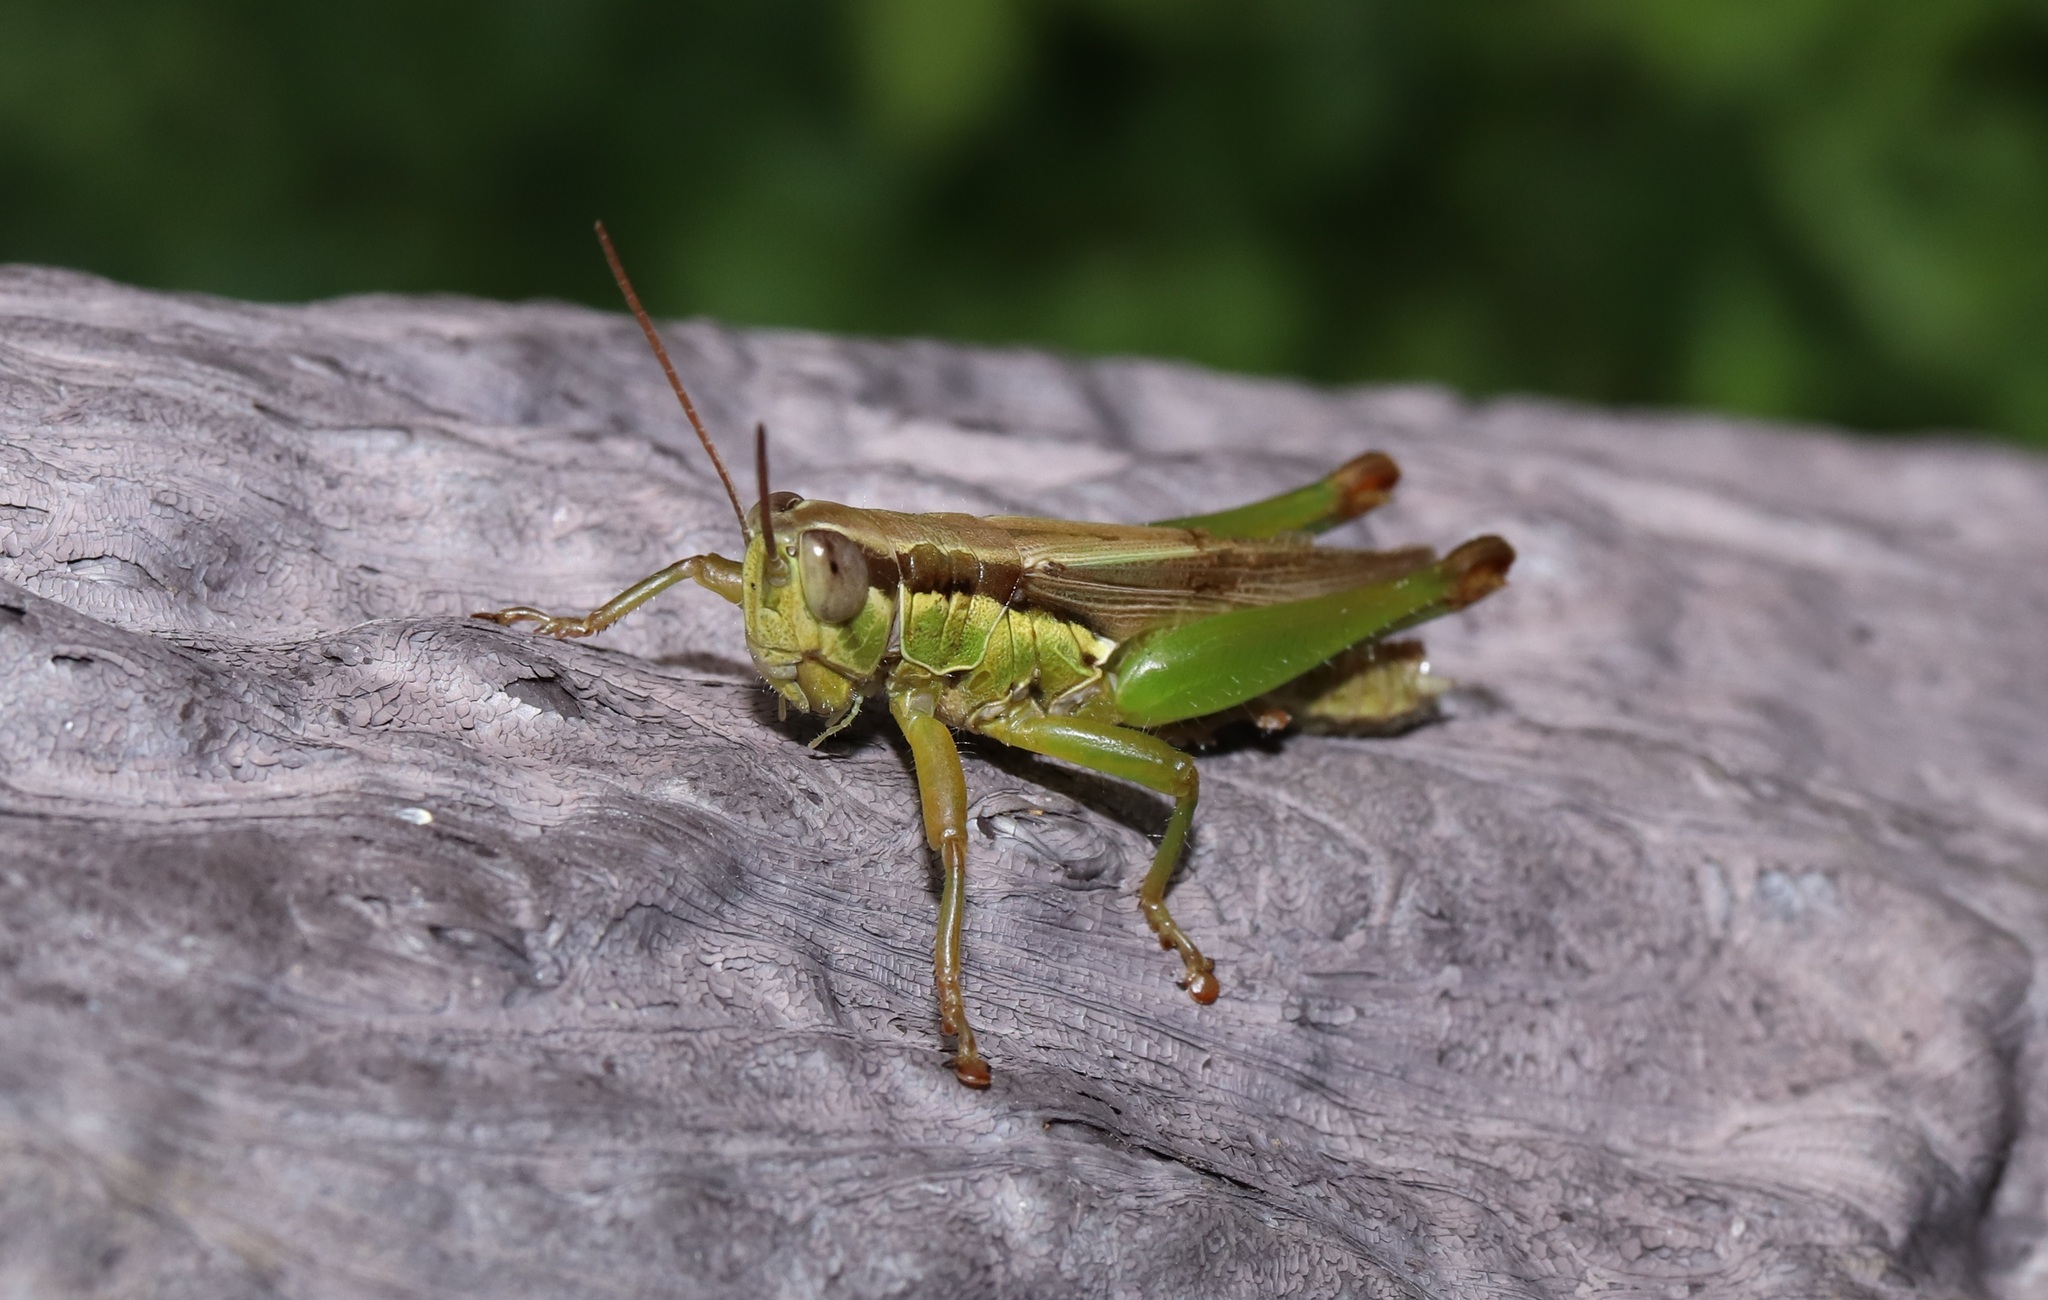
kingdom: Animalia
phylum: Arthropoda
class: Insecta
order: Orthoptera
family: Acrididae
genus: Oxya
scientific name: Oxya yezoensis
